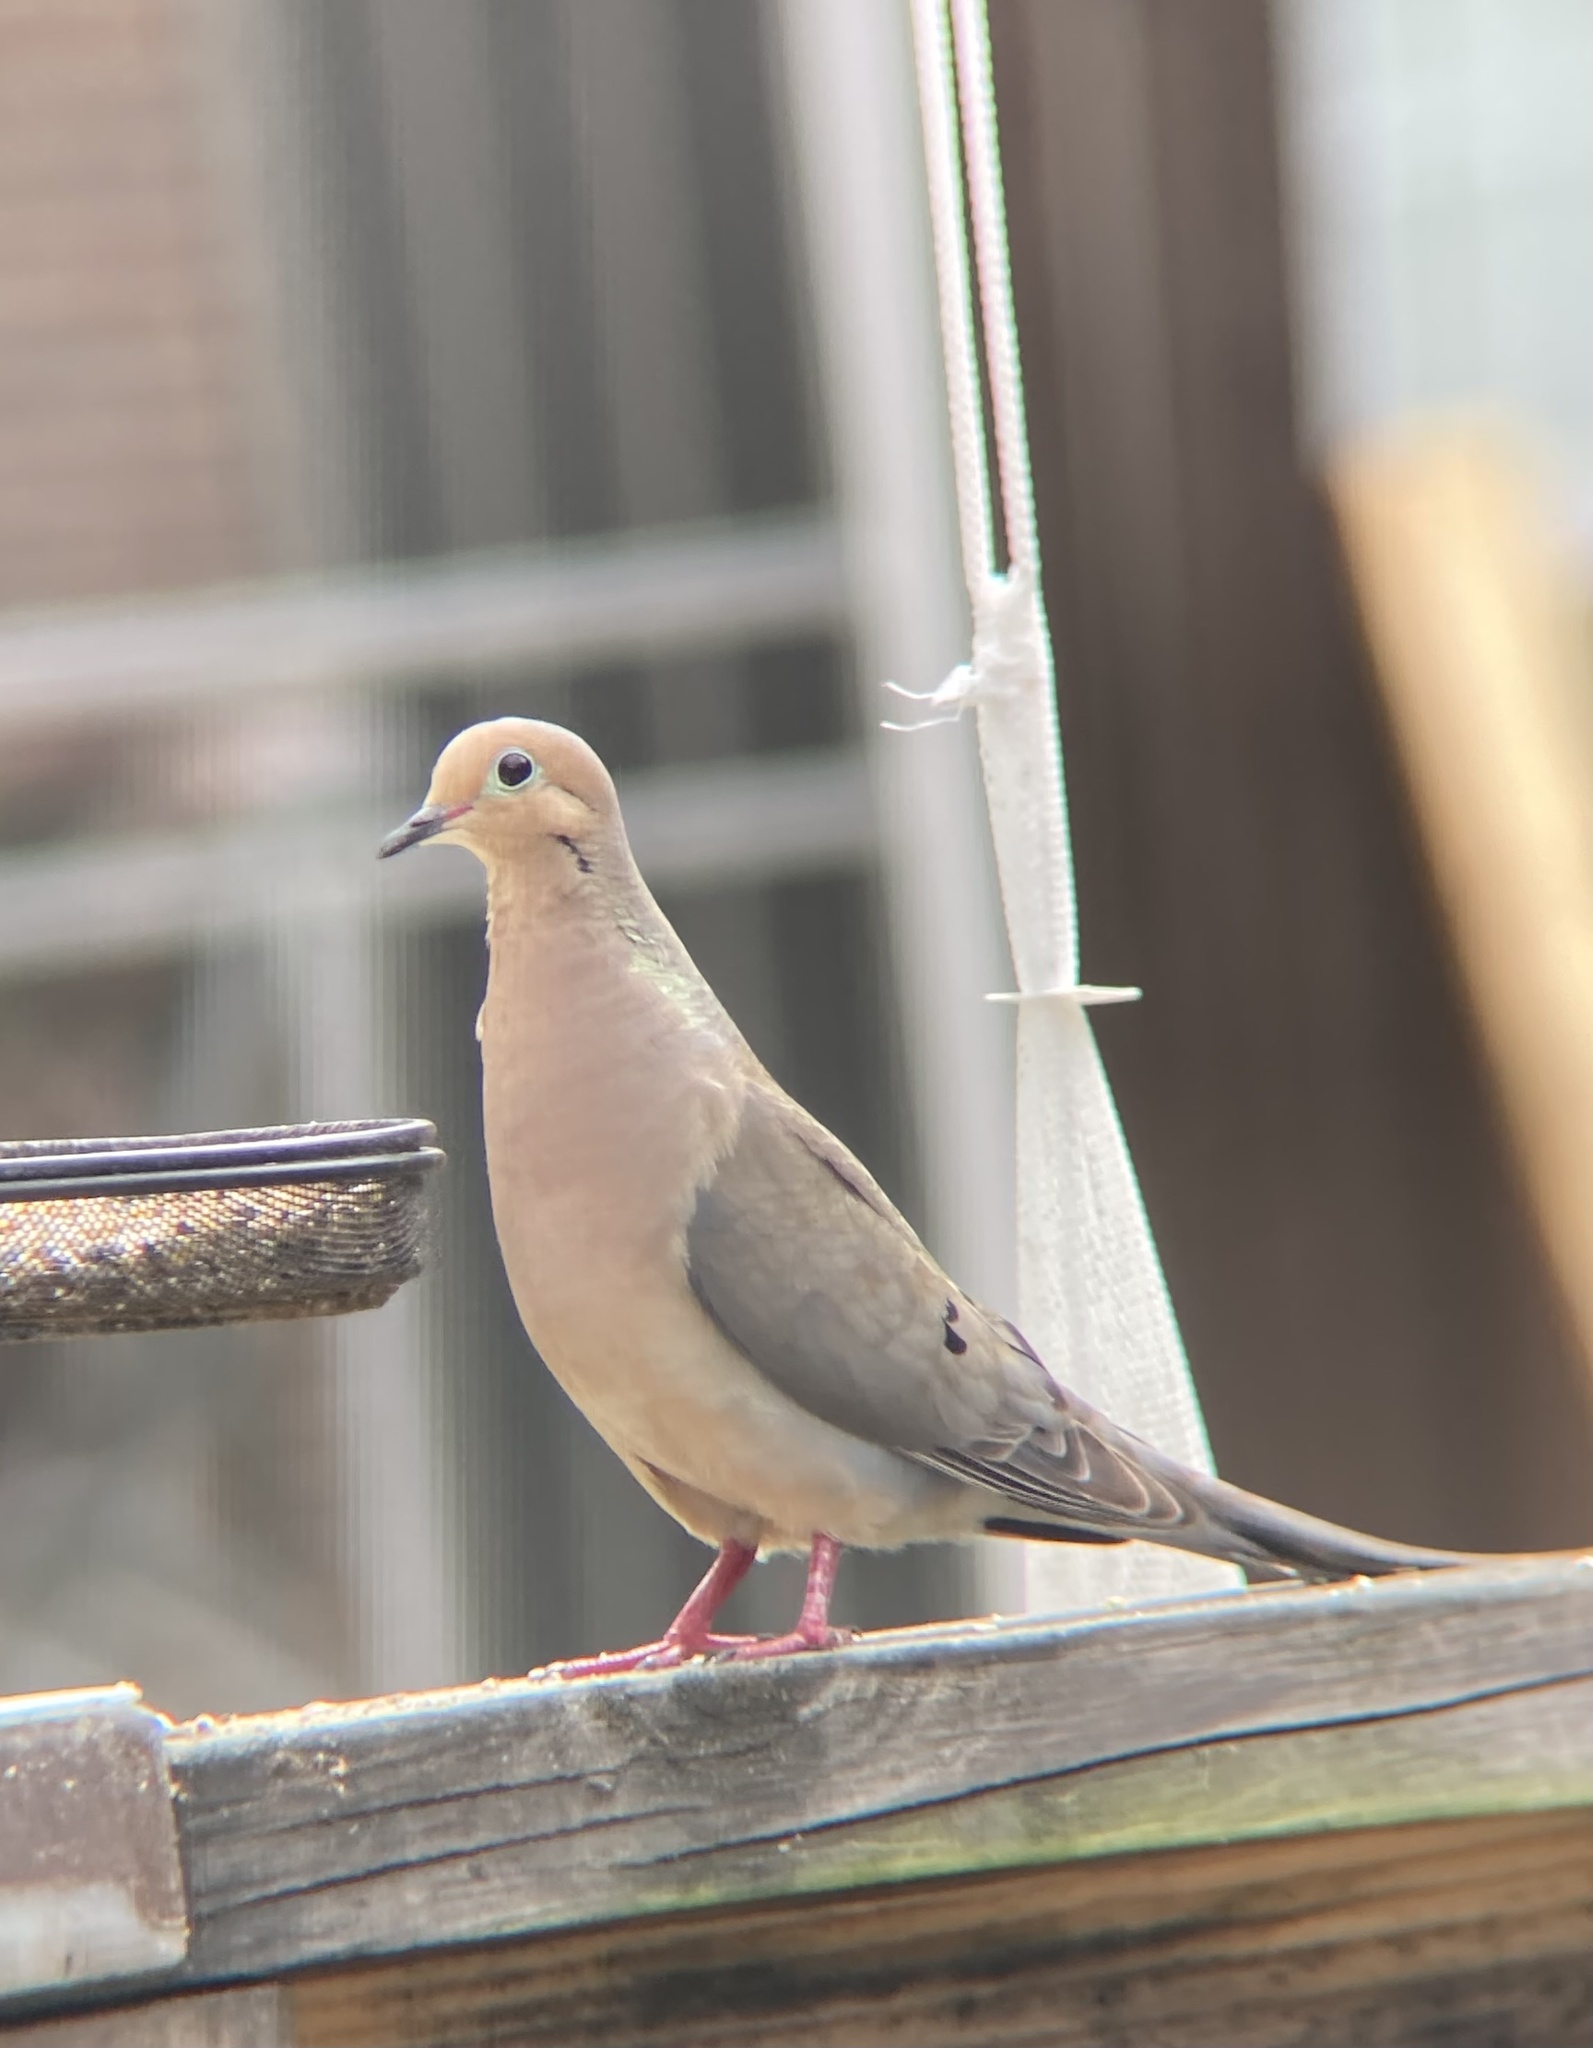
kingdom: Animalia
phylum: Chordata
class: Aves
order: Columbiformes
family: Columbidae
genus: Zenaida
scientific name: Zenaida macroura
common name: Mourning dove
